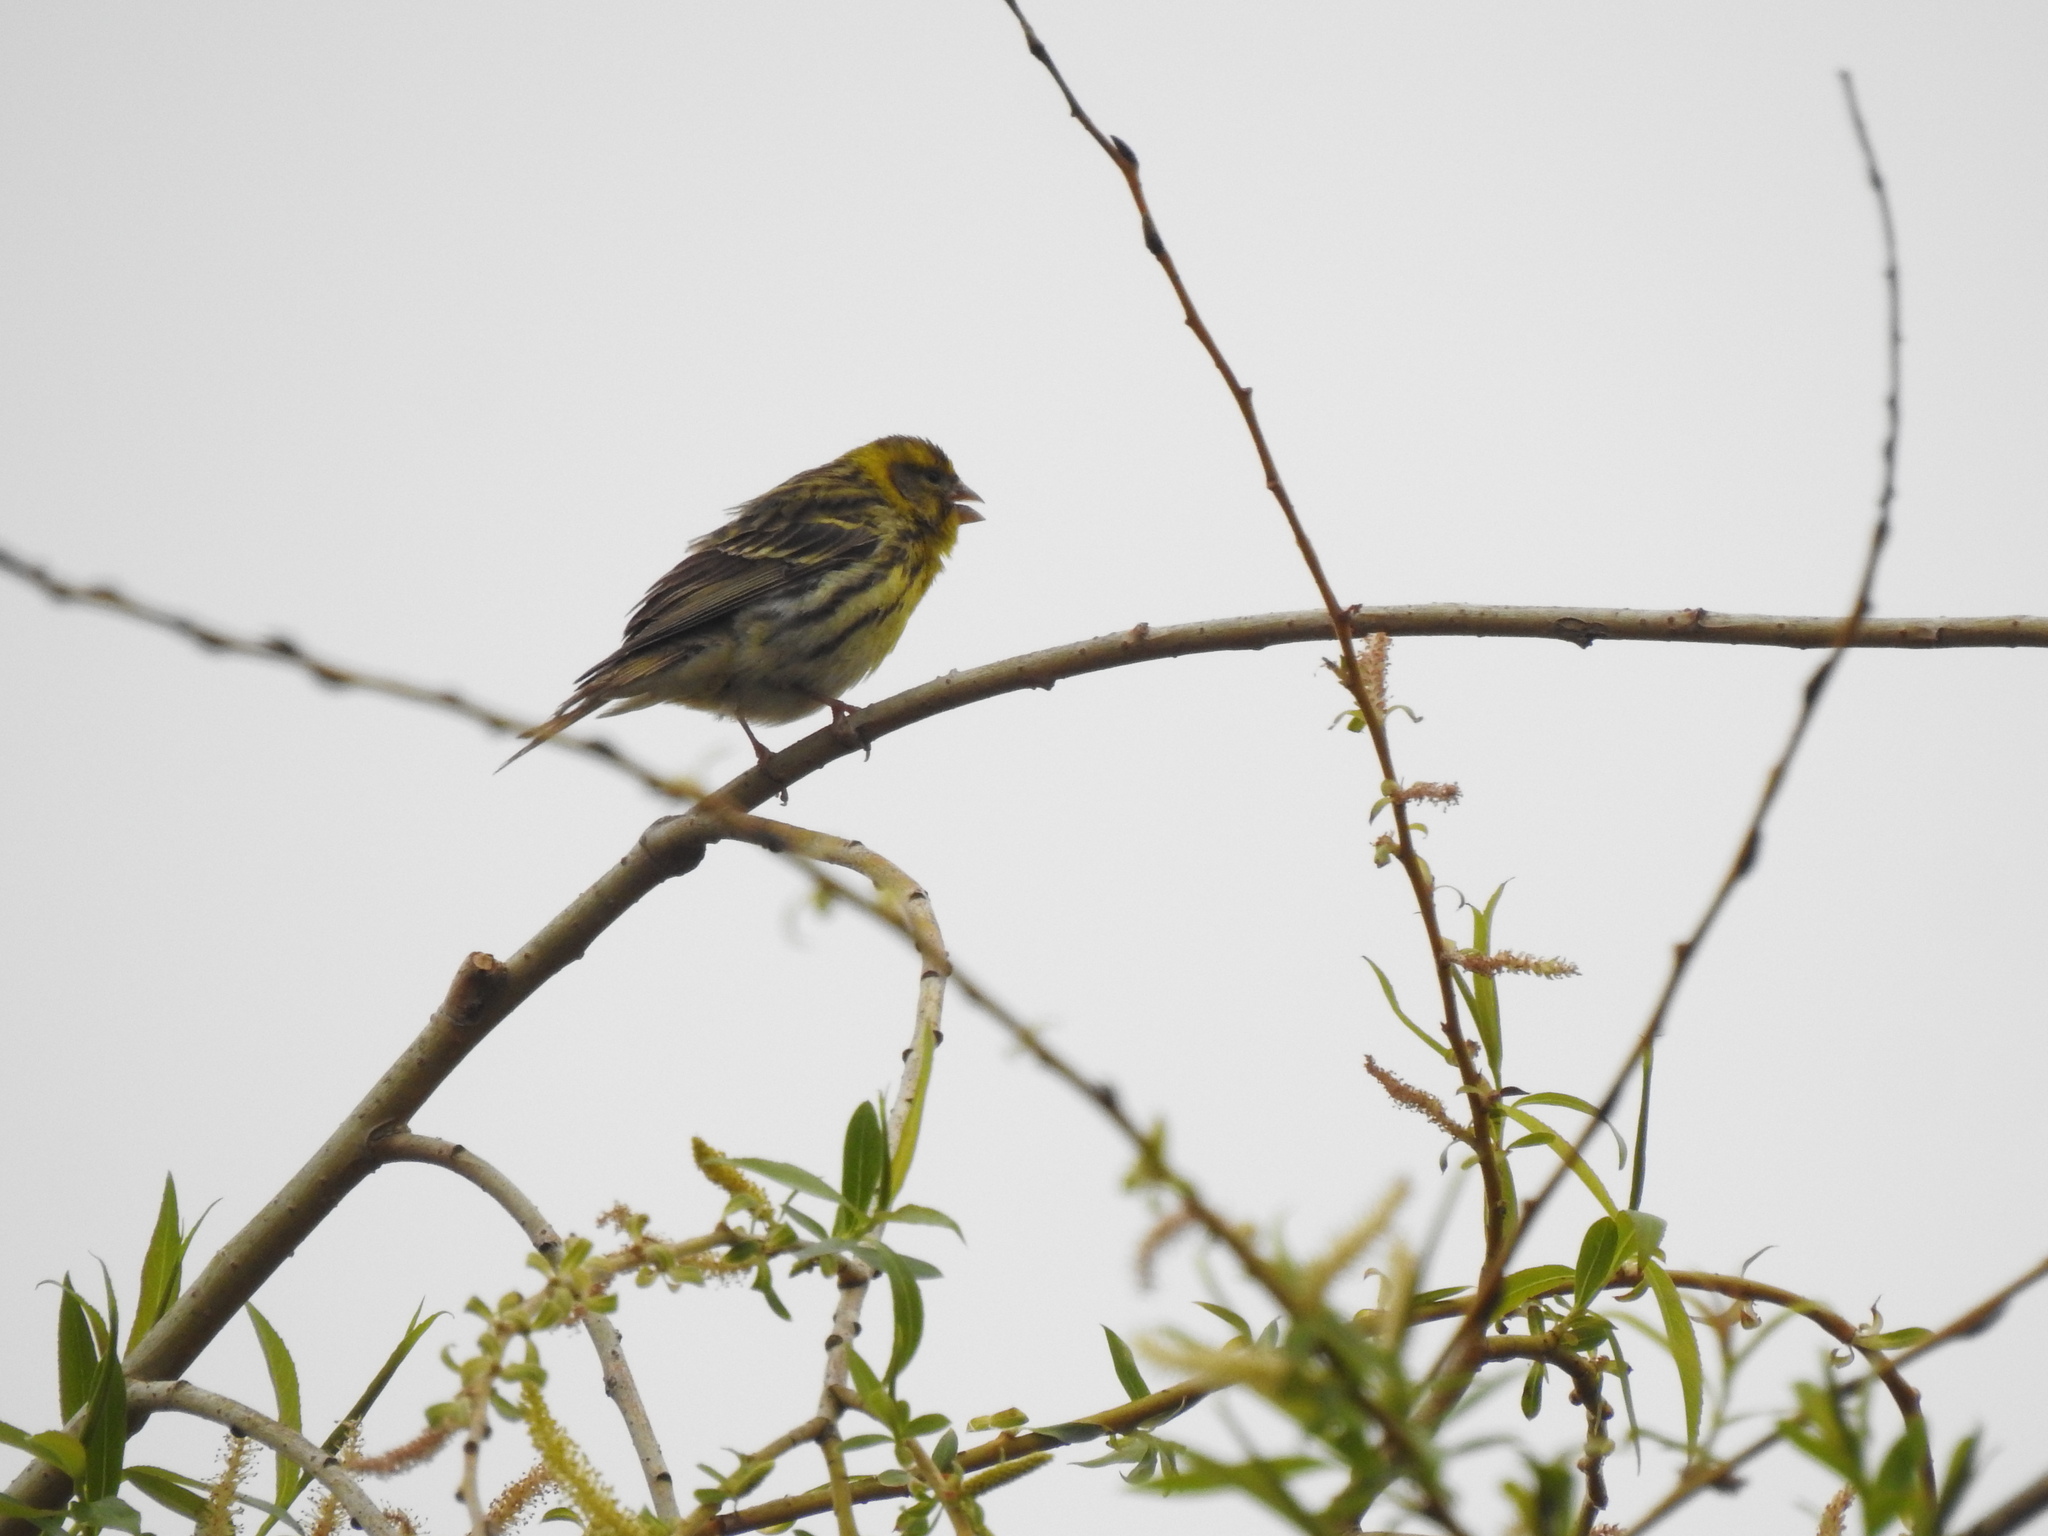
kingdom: Animalia
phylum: Chordata
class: Aves
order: Passeriformes
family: Fringillidae
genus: Serinus
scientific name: Serinus serinus
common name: European serin
